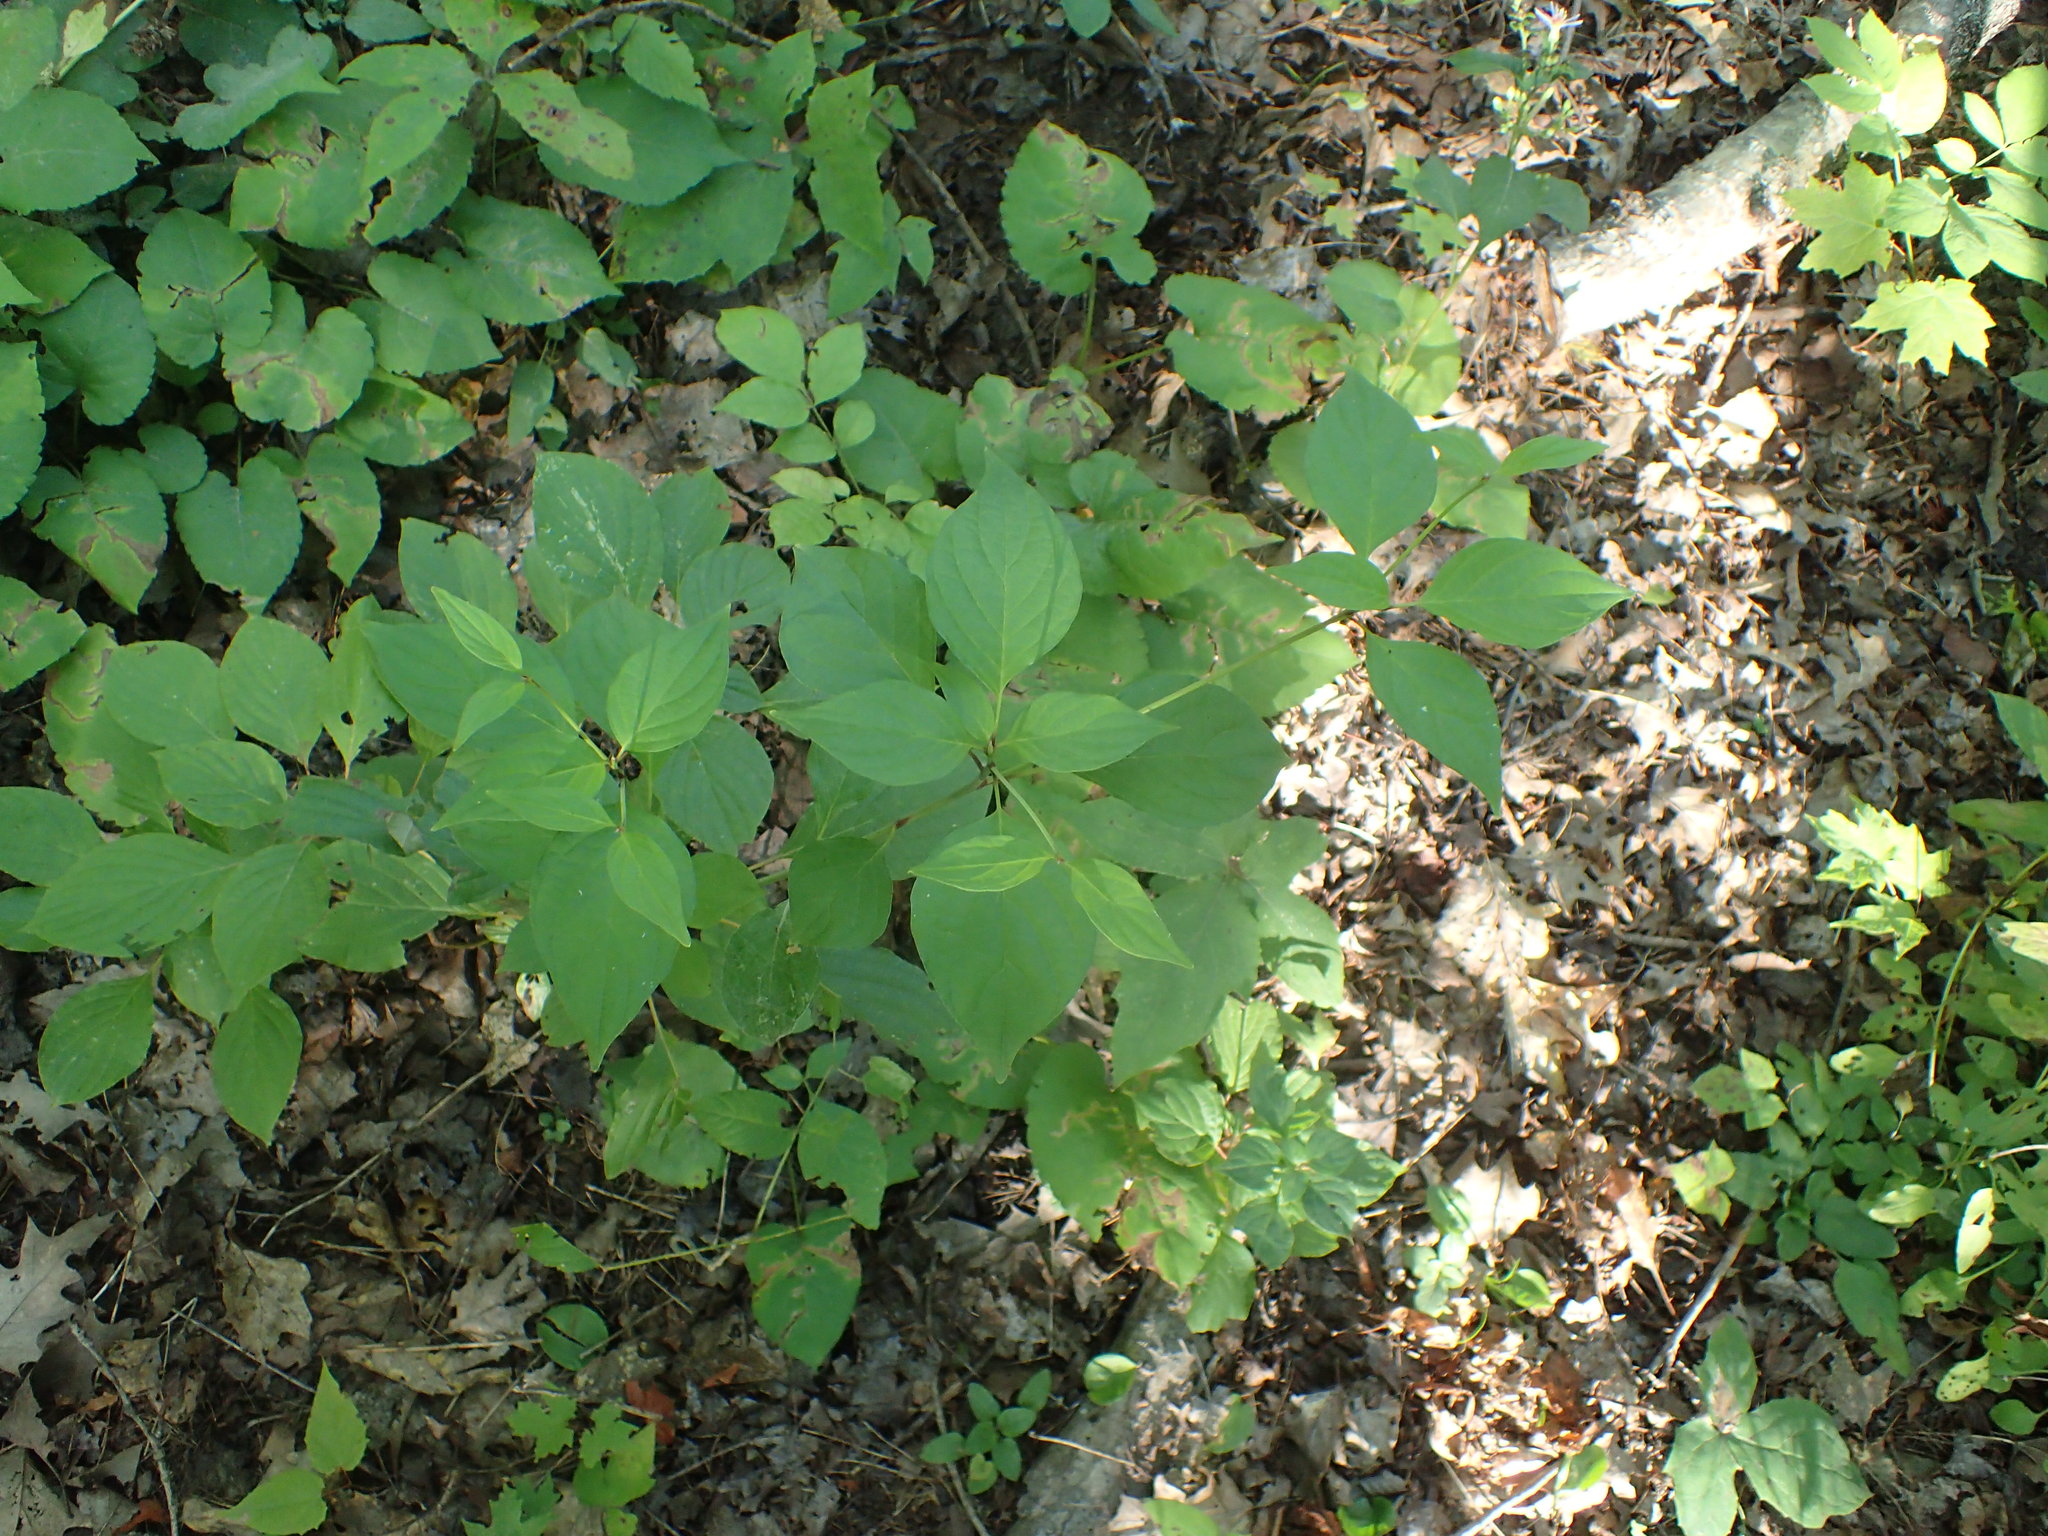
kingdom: Plantae
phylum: Tracheophyta
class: Magnoliopsida
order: Cornales
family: Cornaceae
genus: Cornus
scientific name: Cornus alternifolia
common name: Pagoda dogwood
